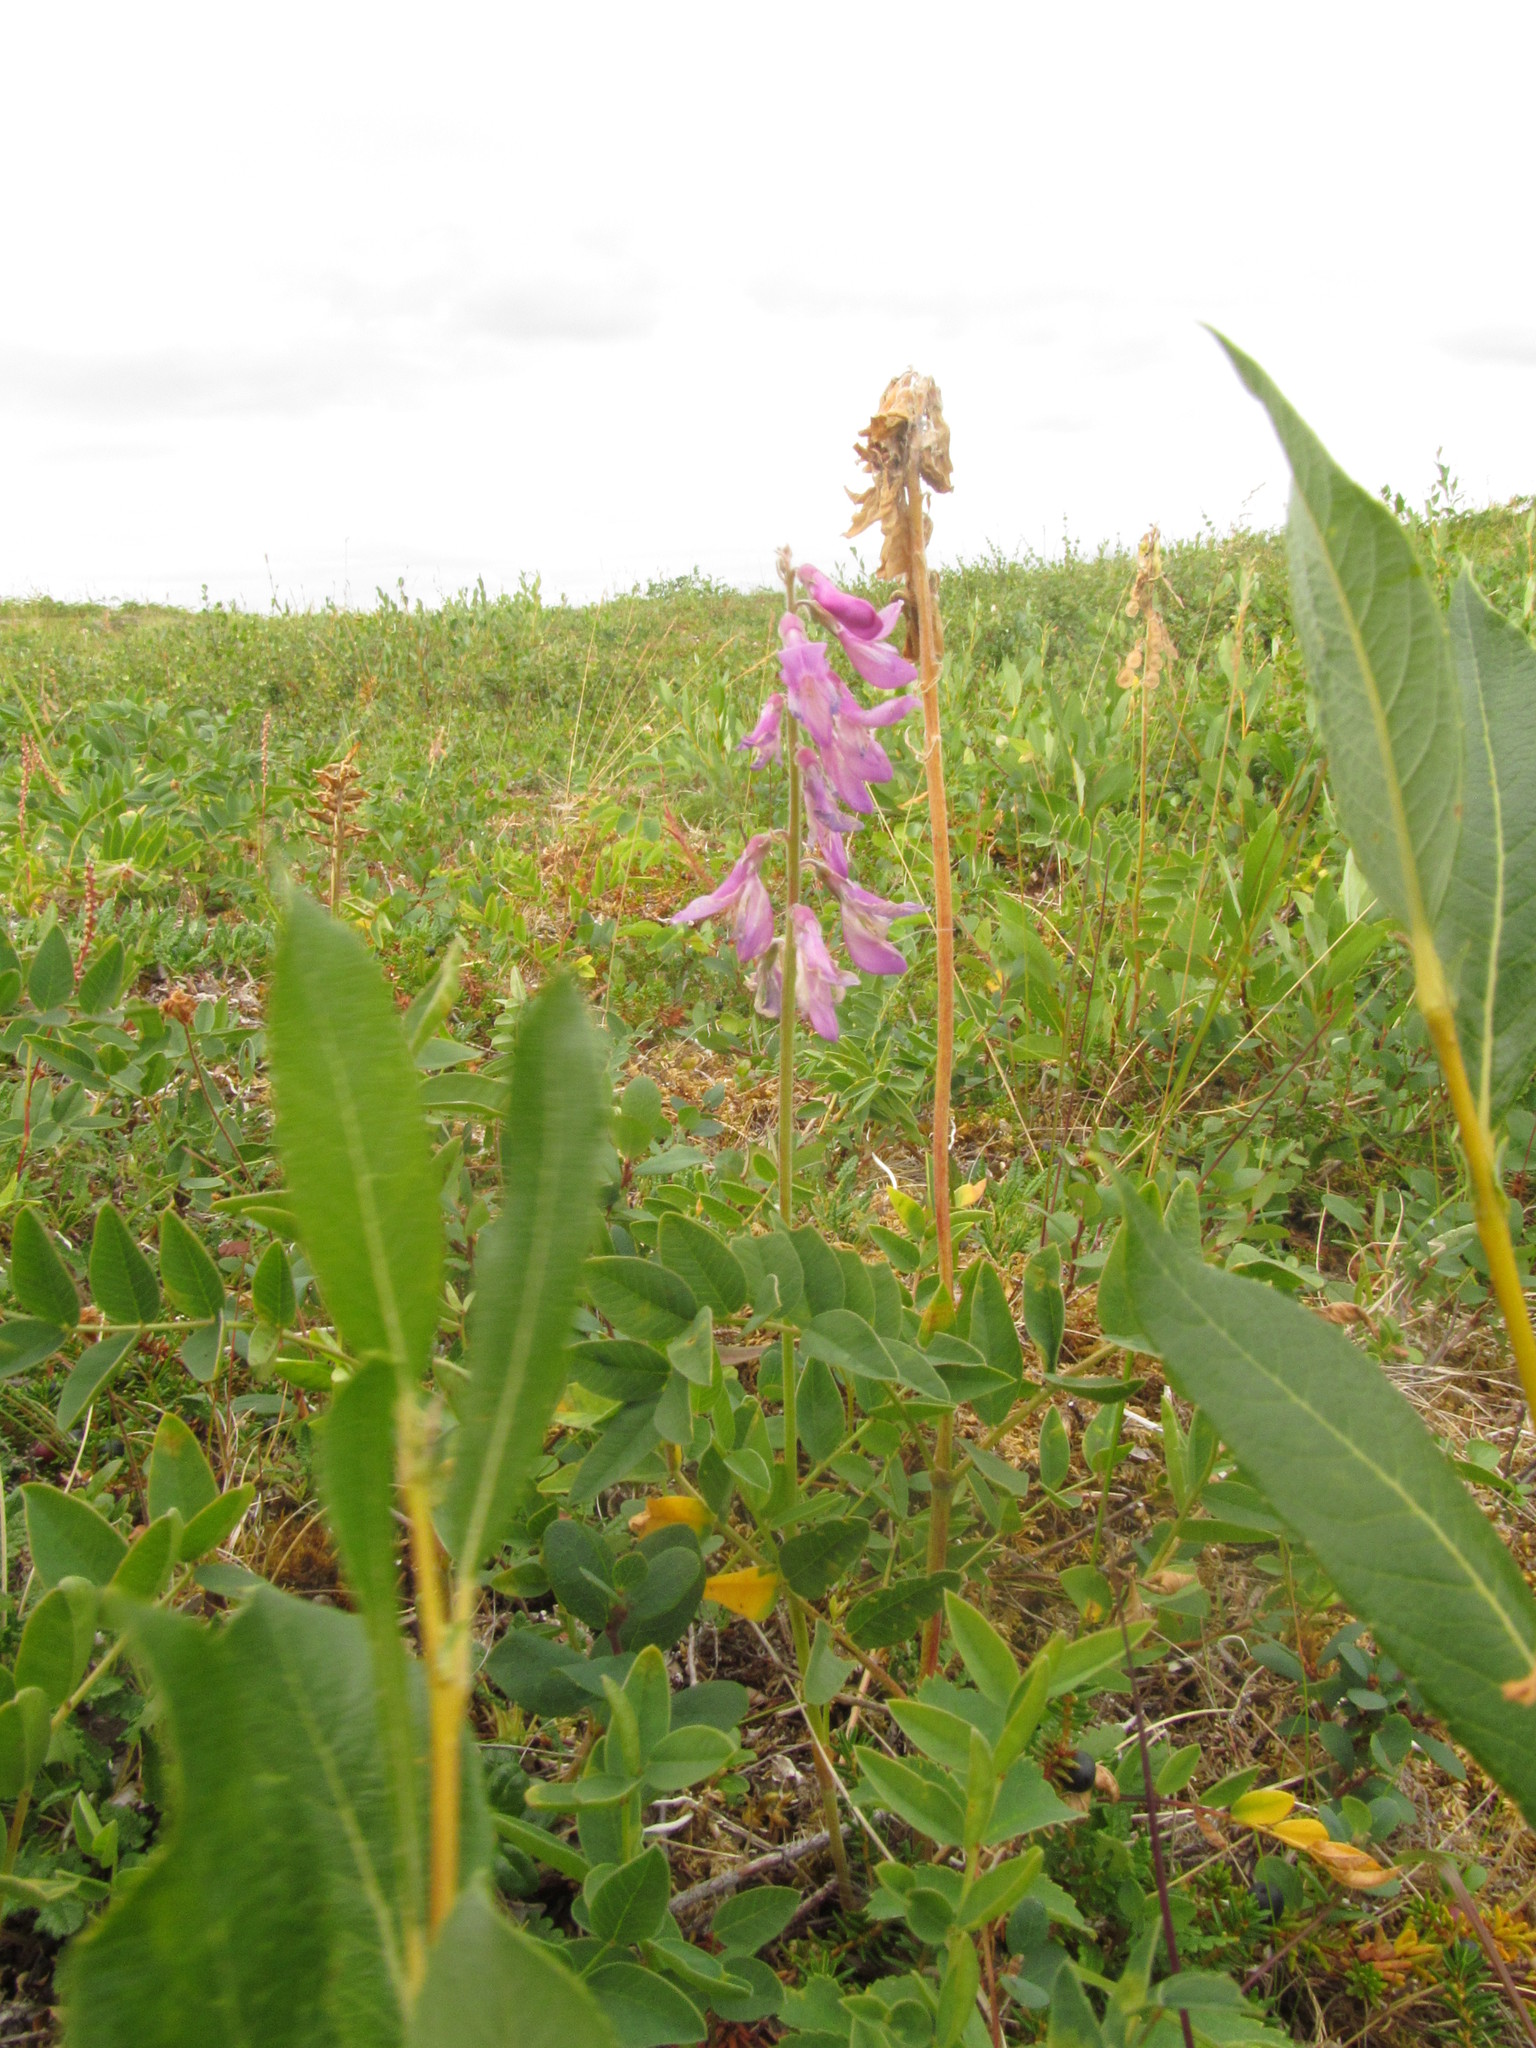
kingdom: Plantae
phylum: Tracheophyta
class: Magnoliopsida
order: Fabales
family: Fabaceae
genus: Hedysarum
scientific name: Hedysarum hedysaroides
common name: Alpine french-honeysuckle
